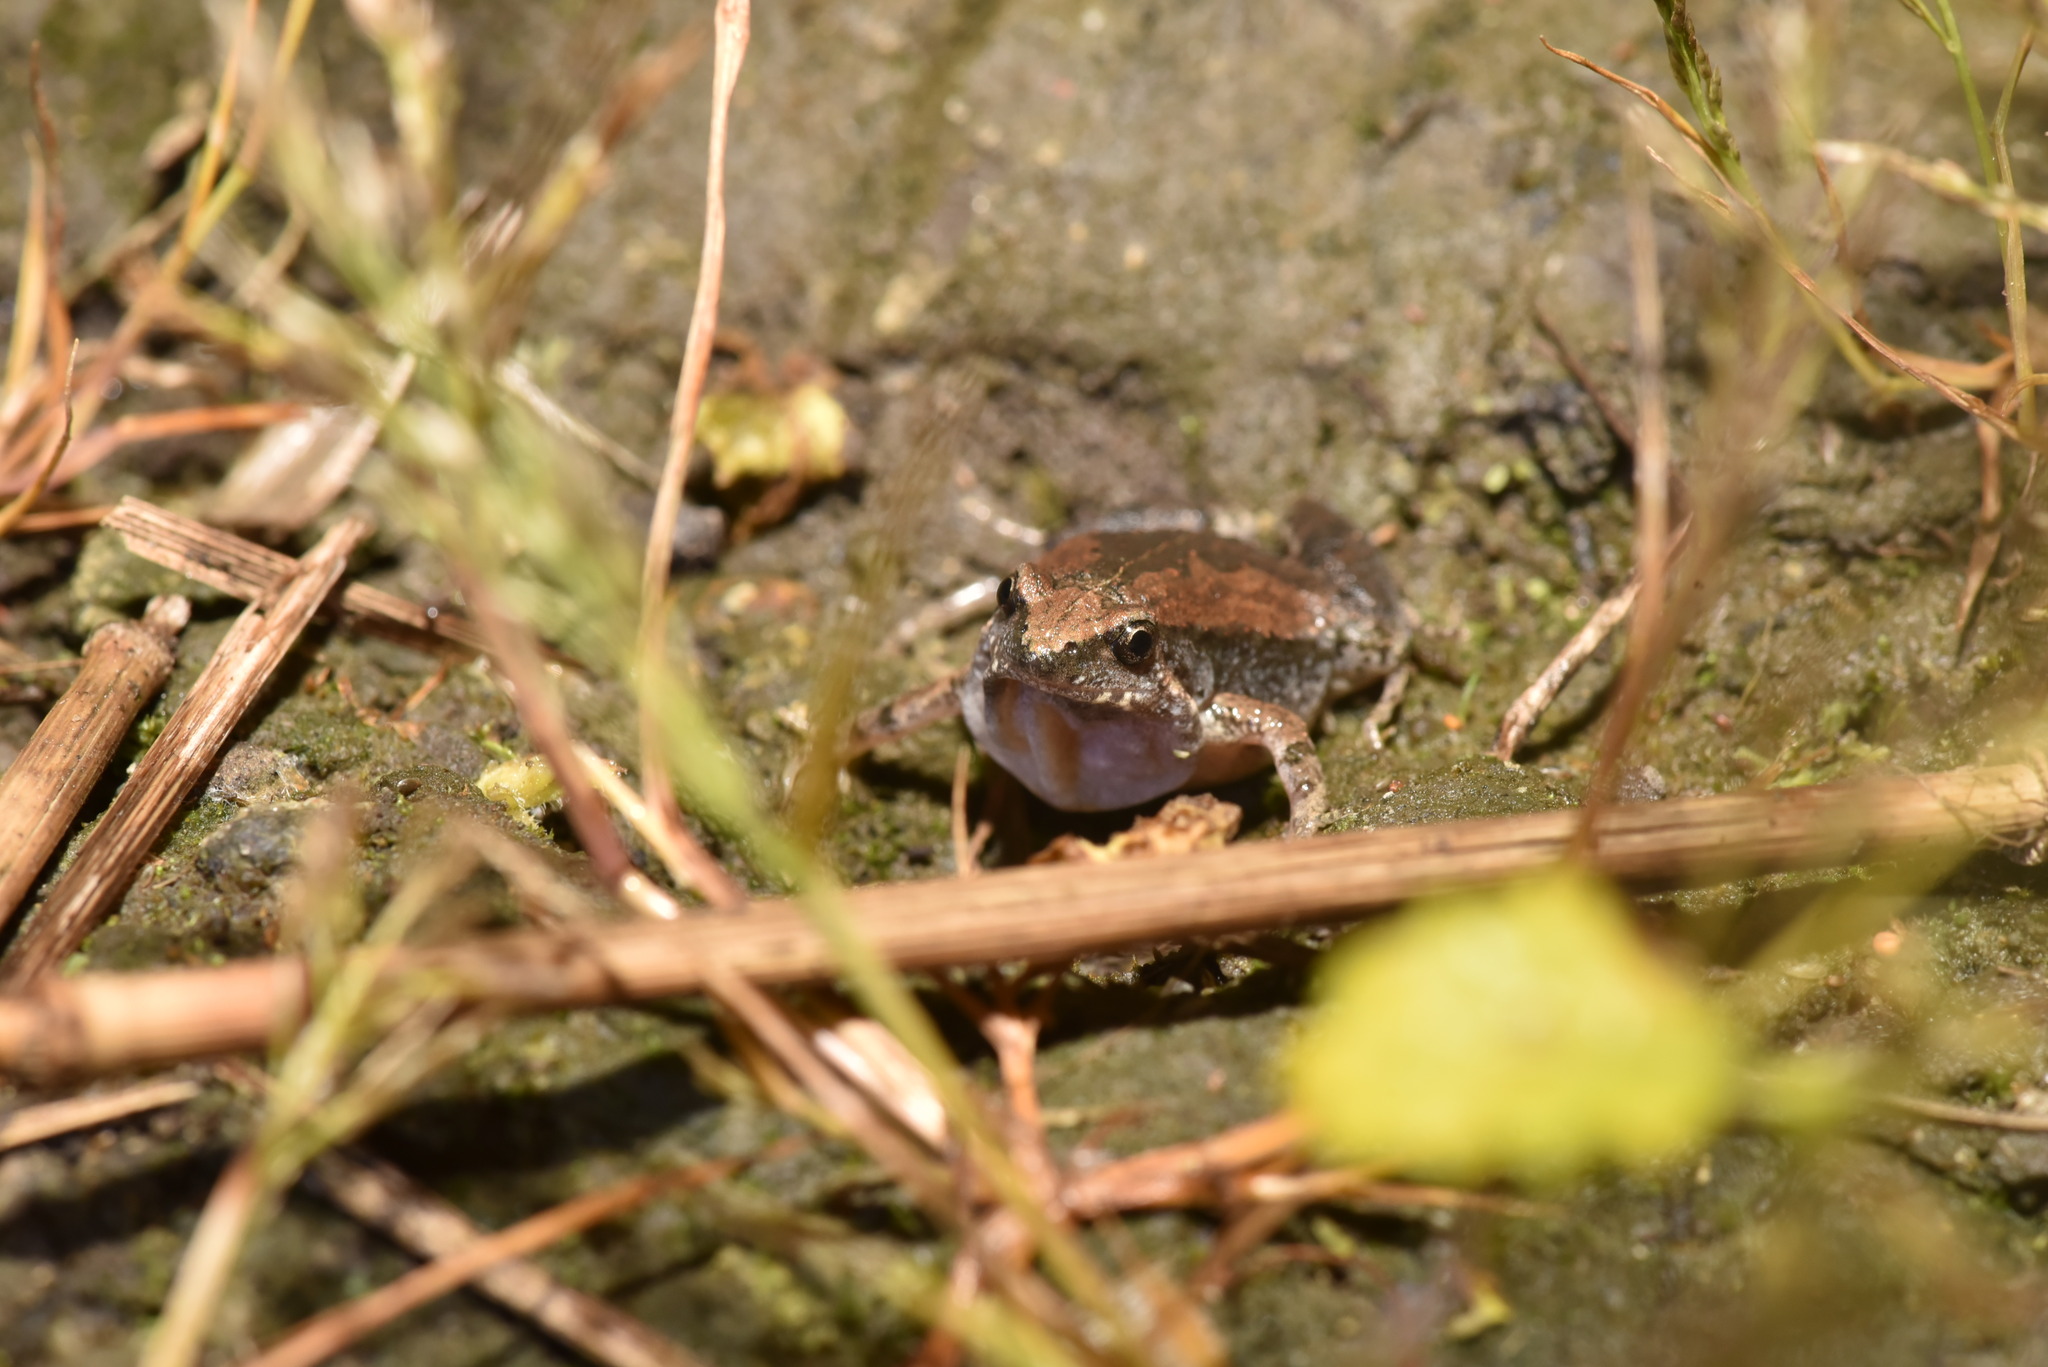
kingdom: Animalia
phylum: Chordata
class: Amphibia
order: Anura
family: Microhylidae
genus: Microhyla
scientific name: Microhyla fissipes
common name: Ornate narrow-mouthed frog
